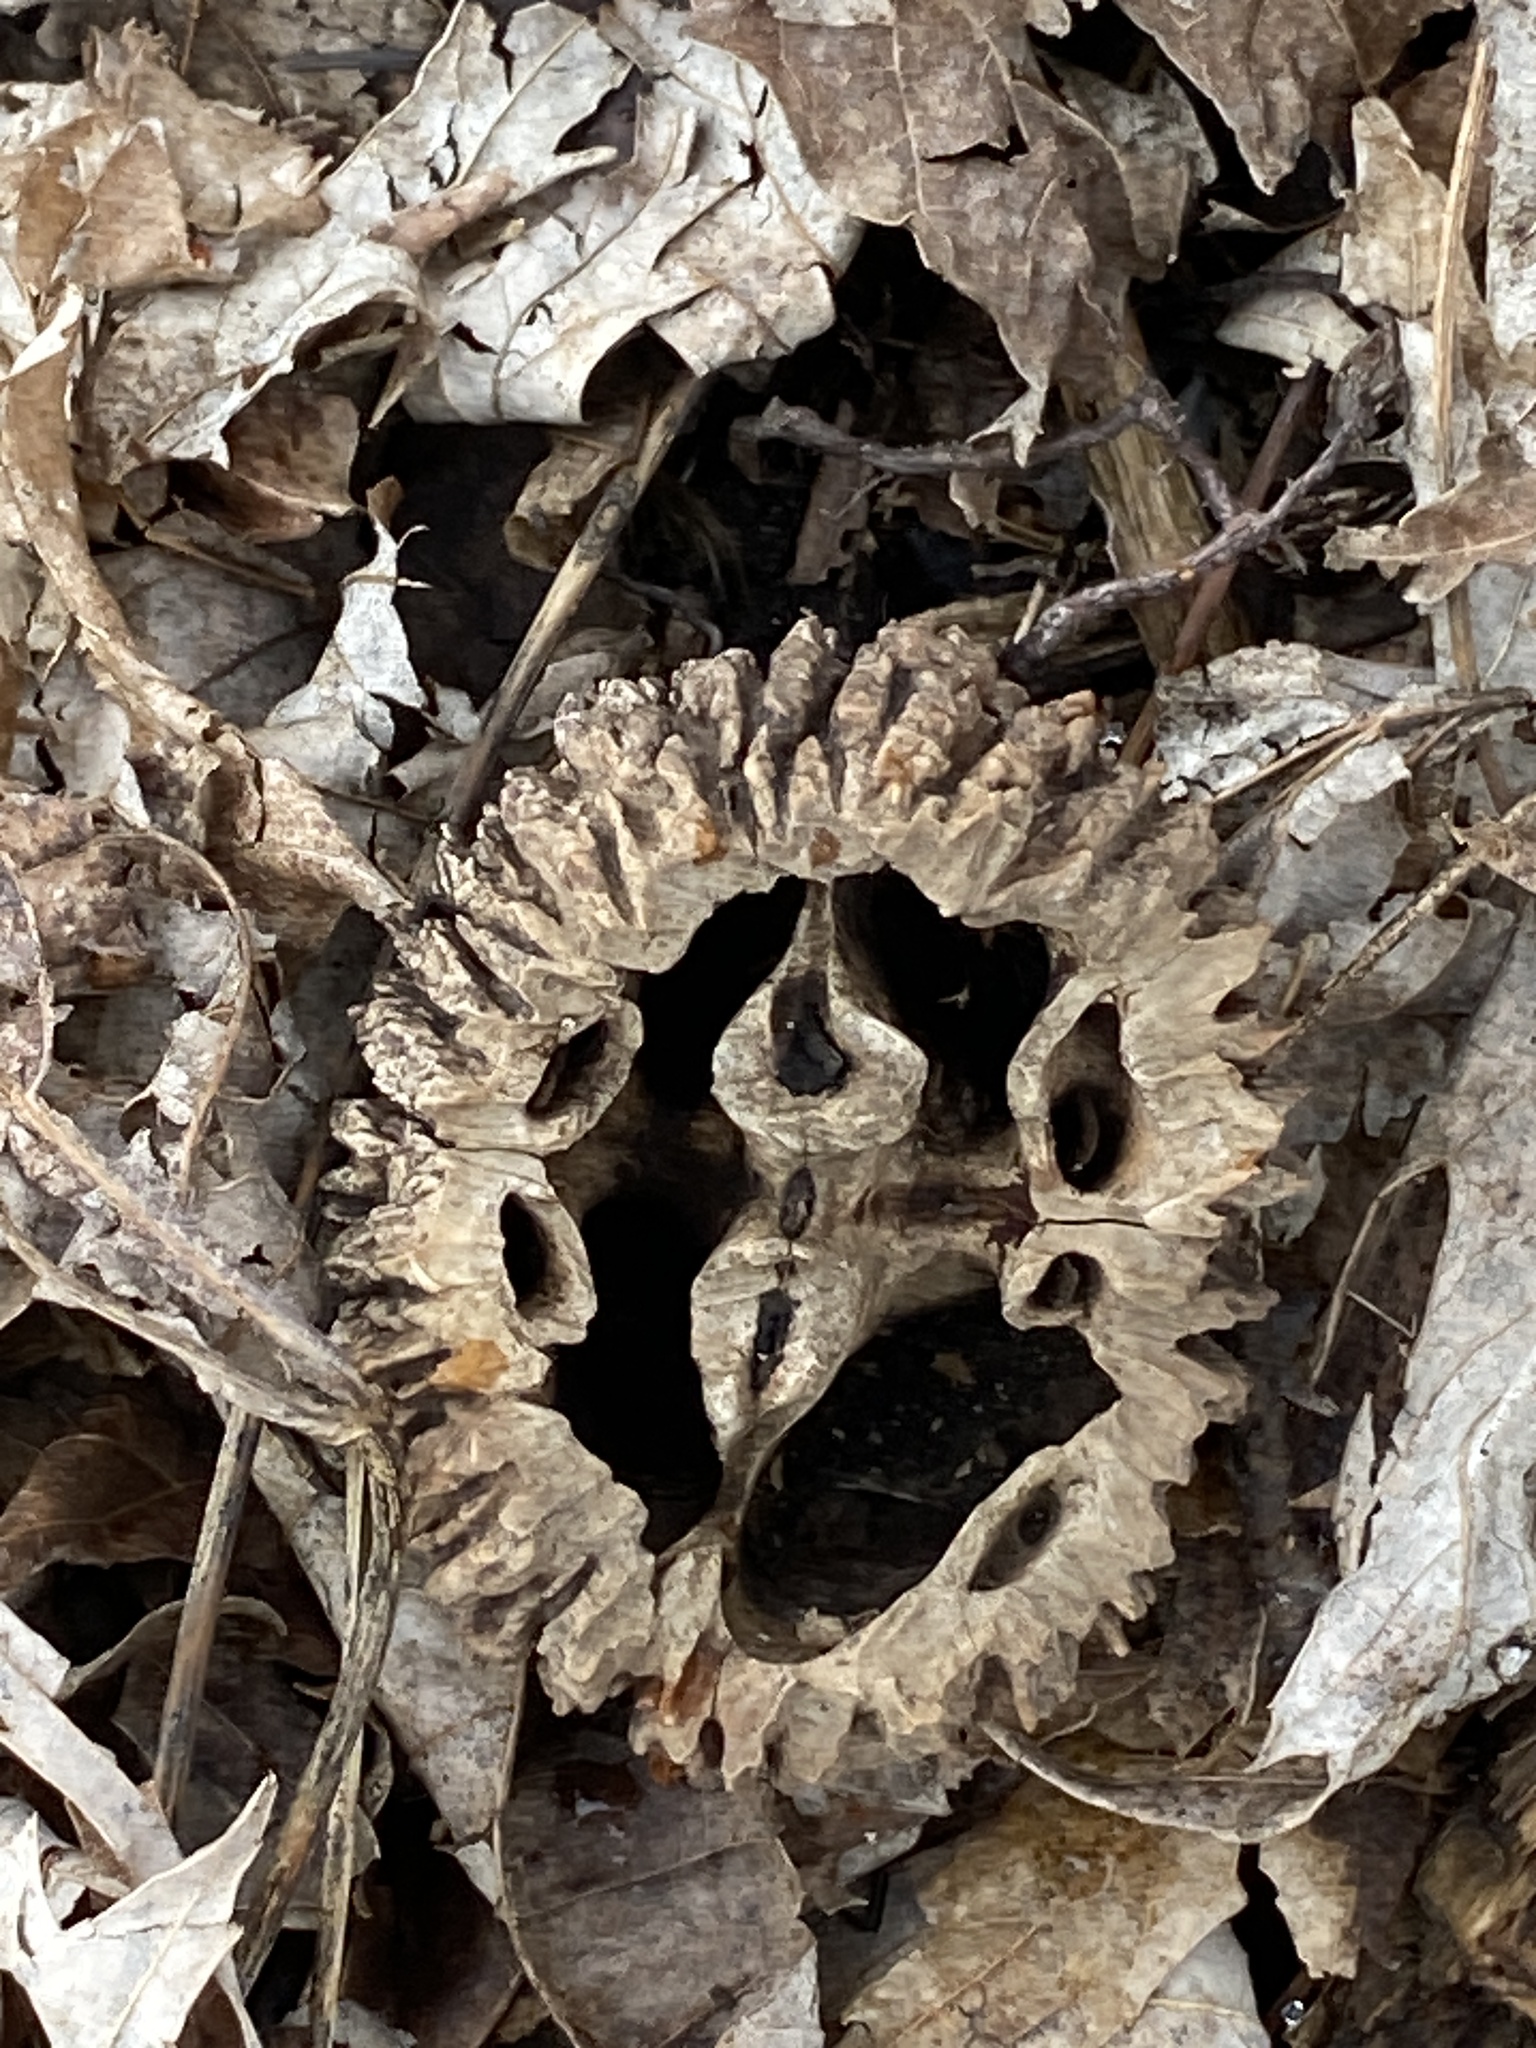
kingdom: Plantae
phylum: Tracheophyta
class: Magnoliopsida
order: Fagales
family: Juglandaceae
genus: Juglans
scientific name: Juglans nigra
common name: Black walnut
